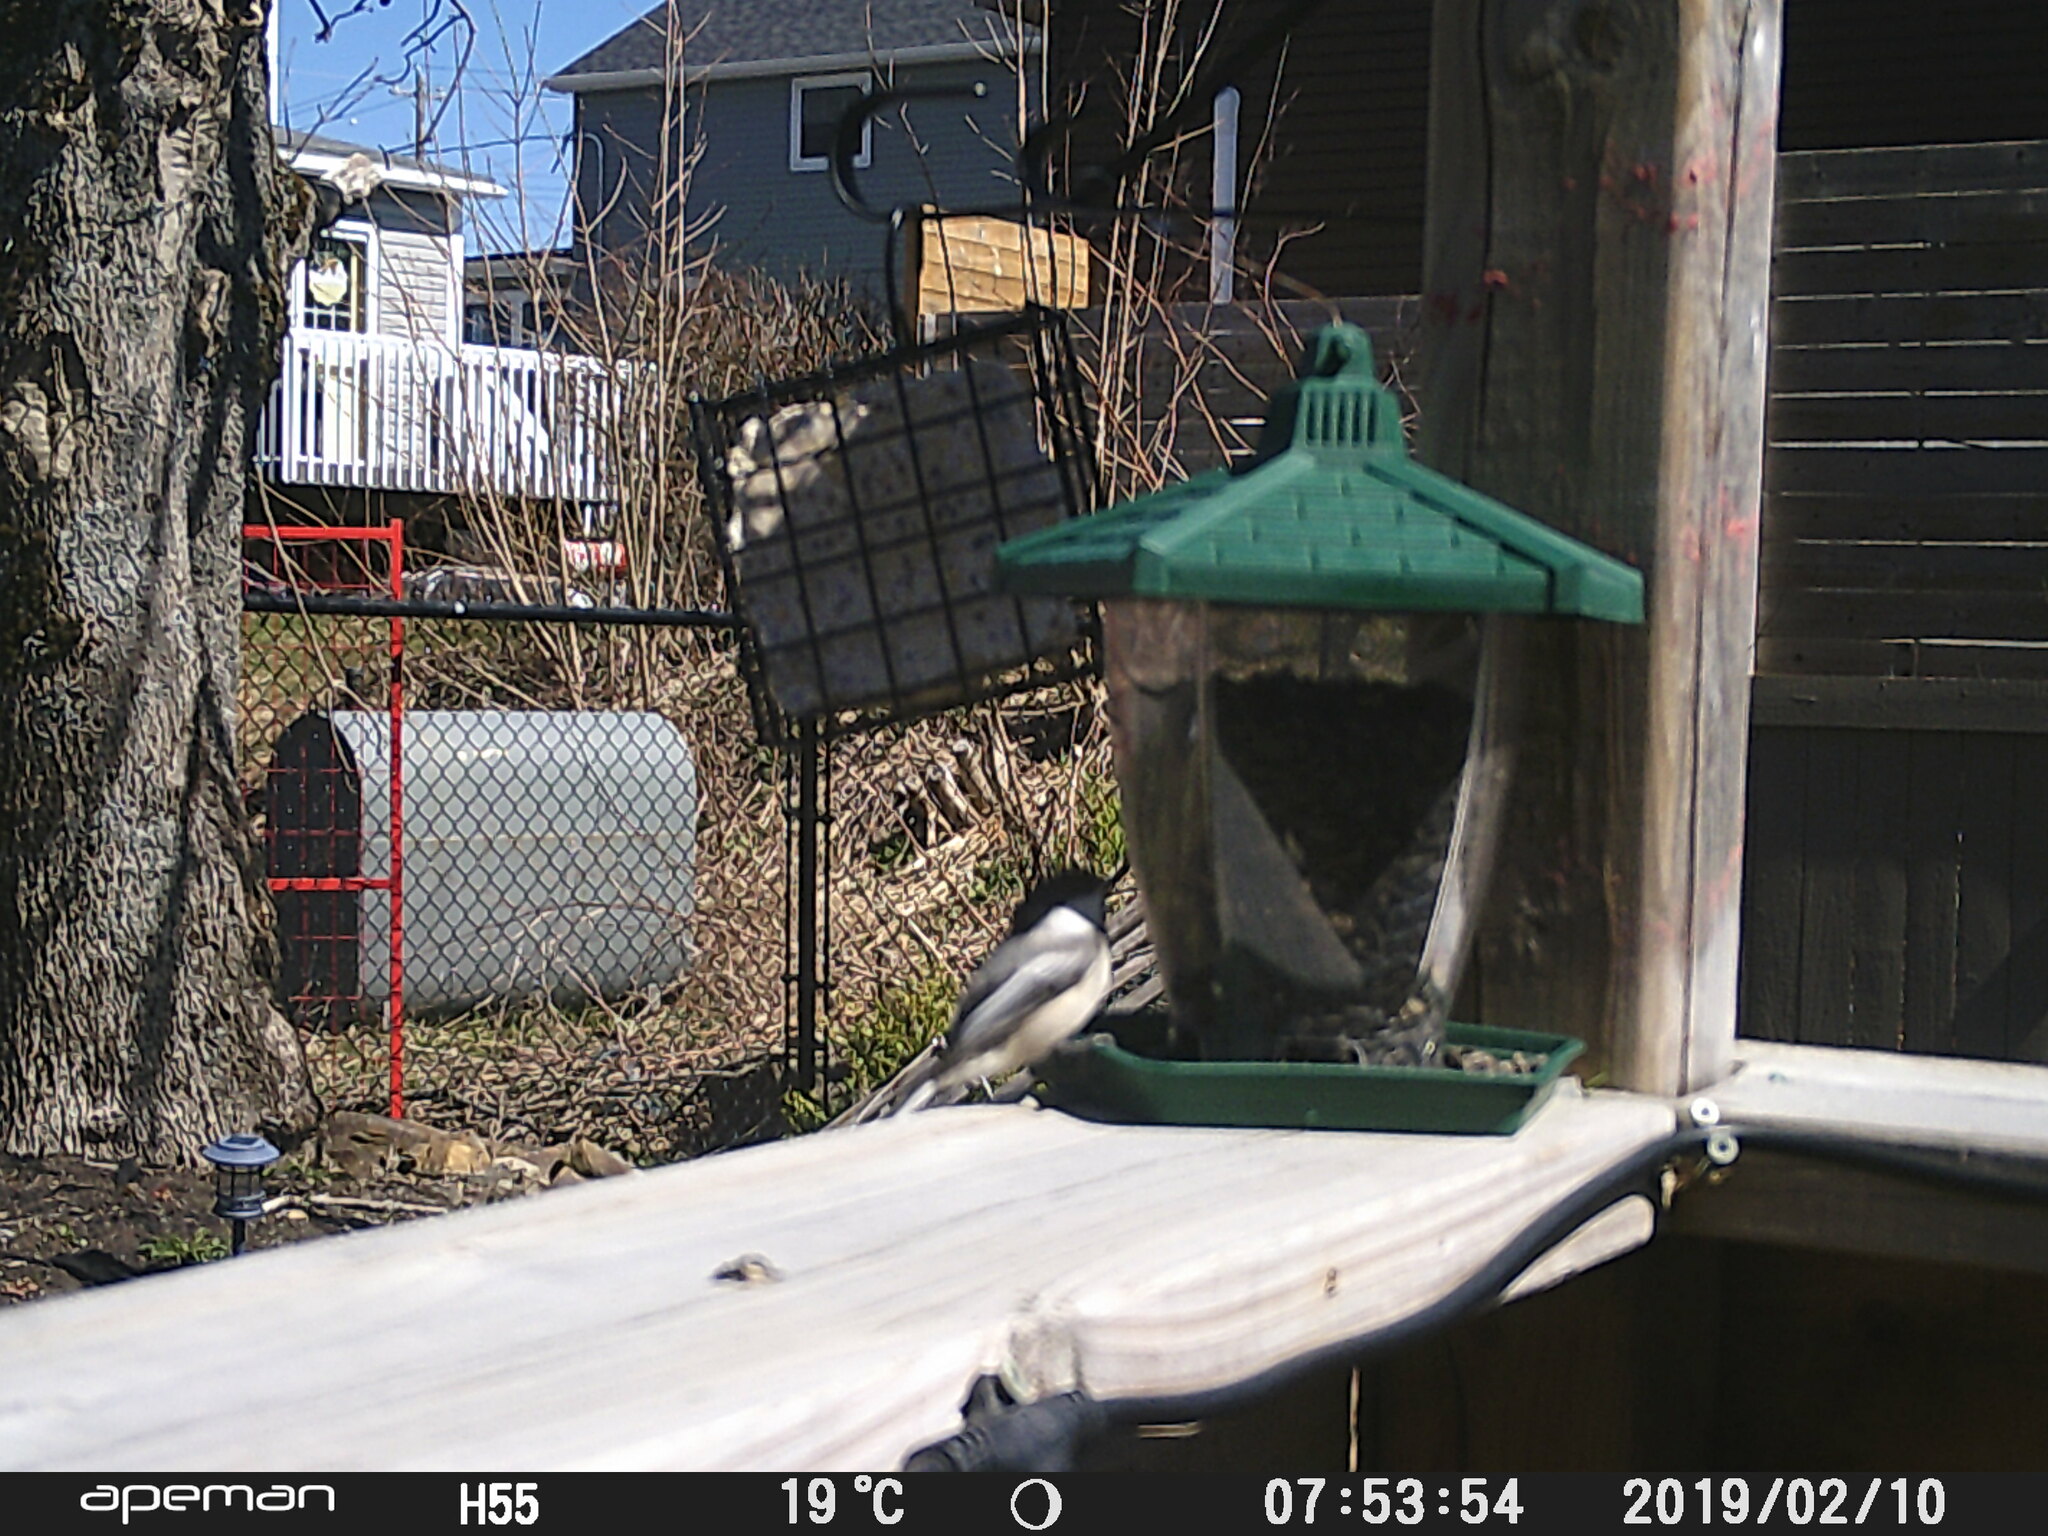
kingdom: Animalia
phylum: Chordata
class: Aves
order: Passeriformes
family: Paridae
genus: Poecile
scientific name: Poecile atricapillus
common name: Black-capped chickadee
